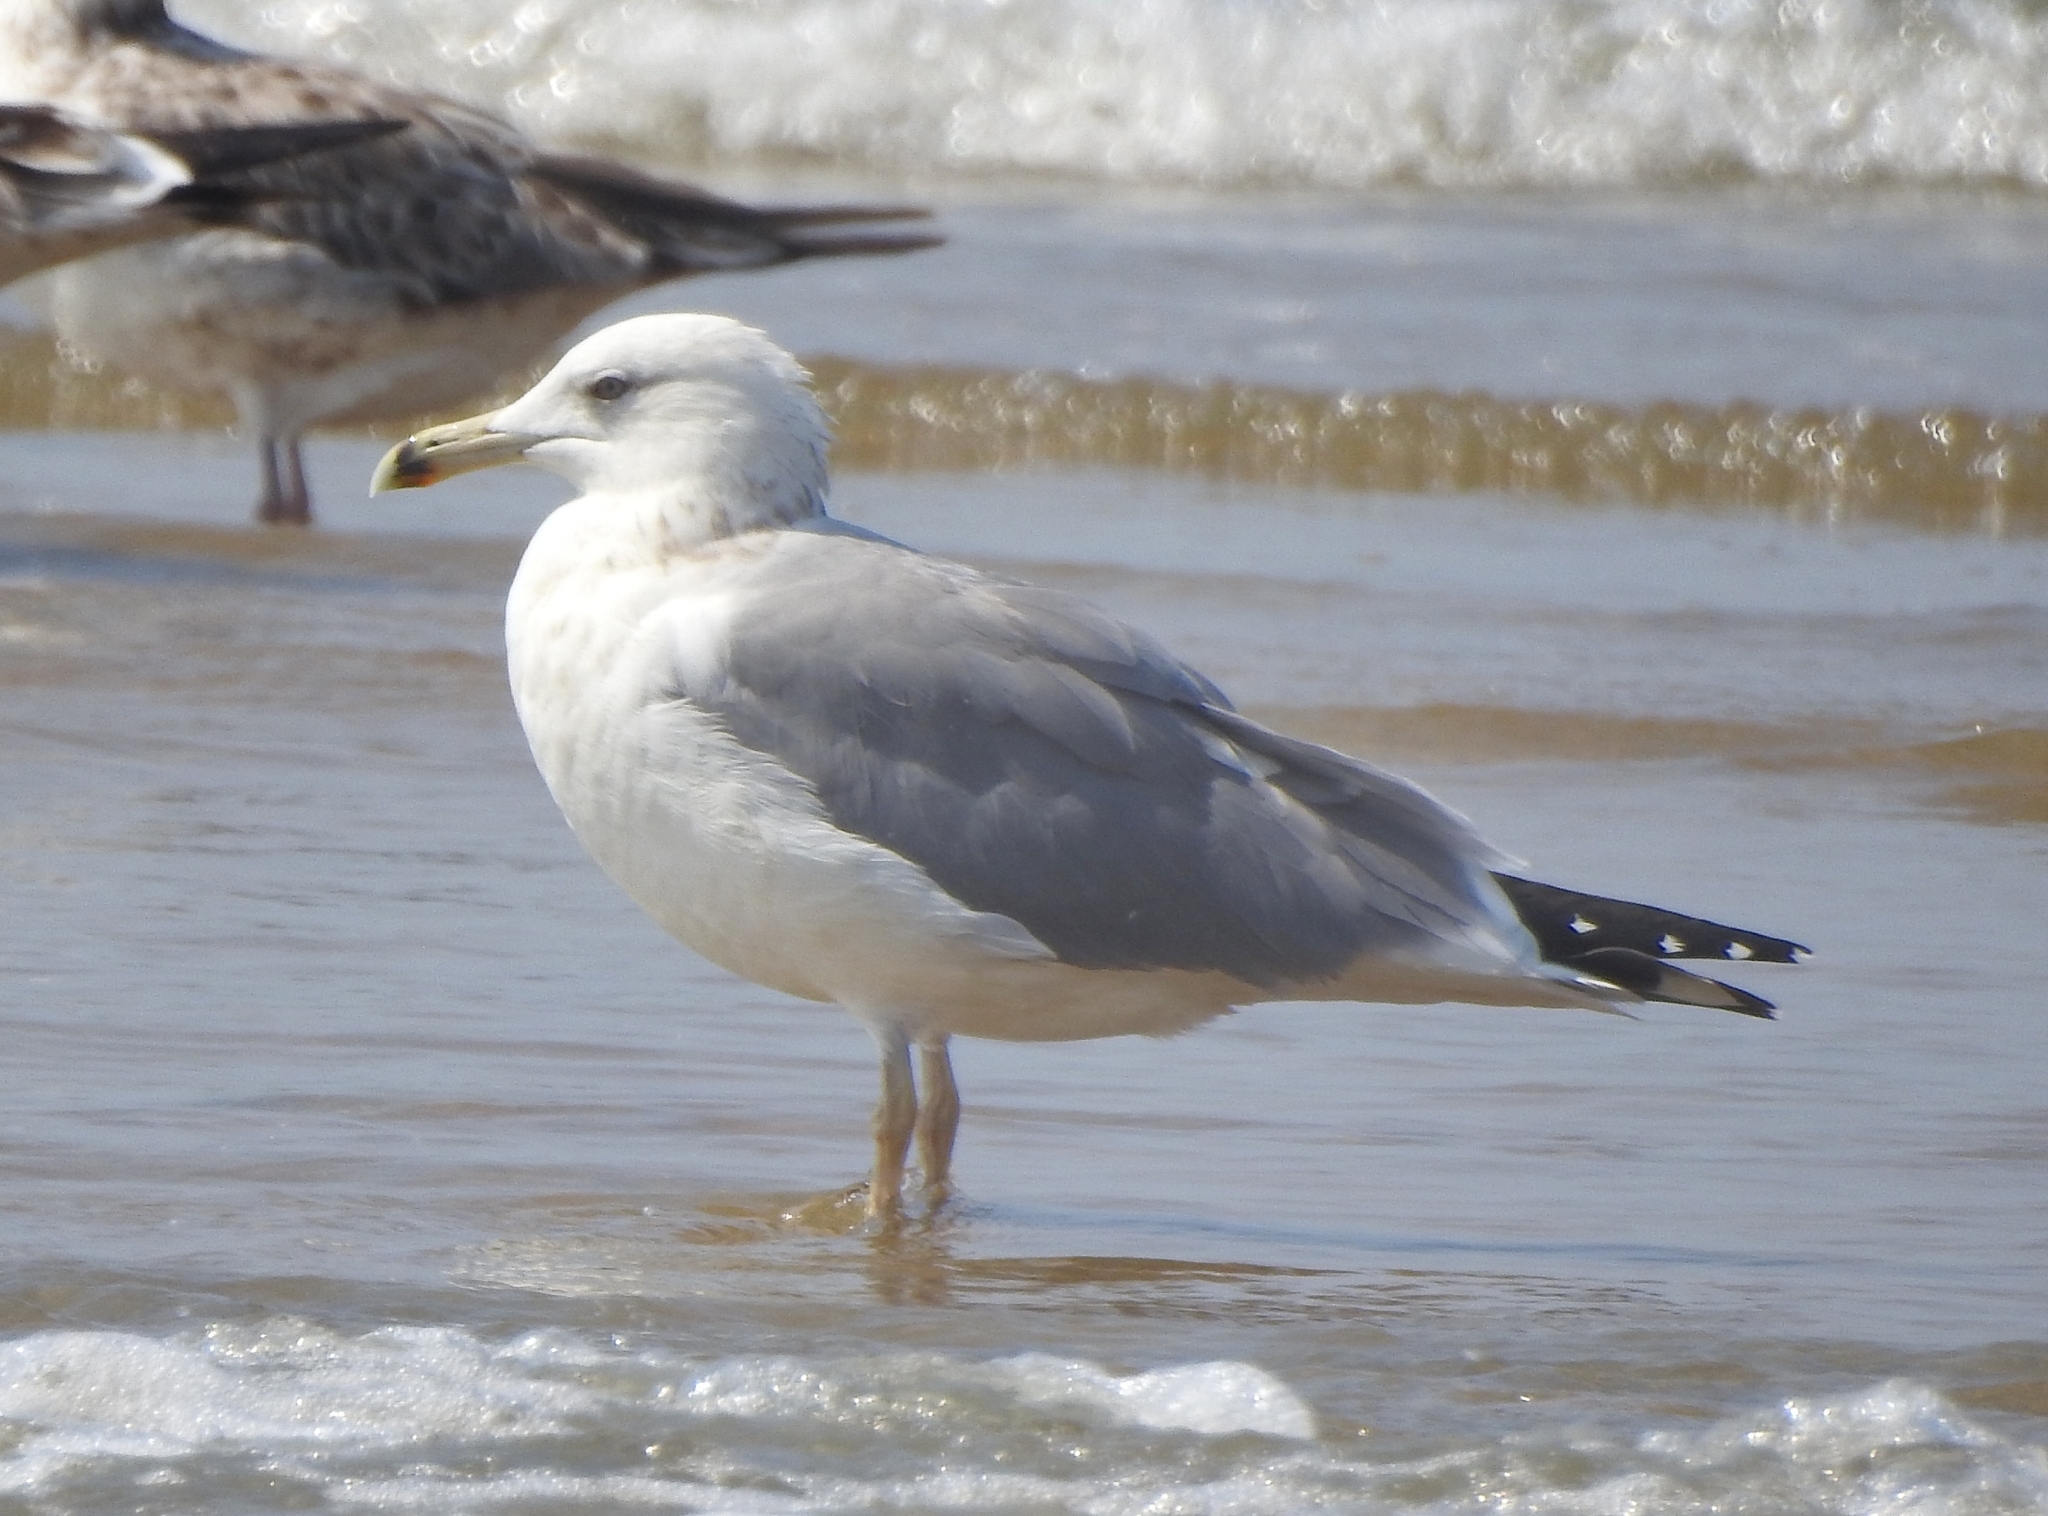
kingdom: Animalia
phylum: Chordata
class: Aves
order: Charadriiformes
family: Laridae
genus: Larus
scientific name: Larus fuscus
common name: Lesser black-backed gull
